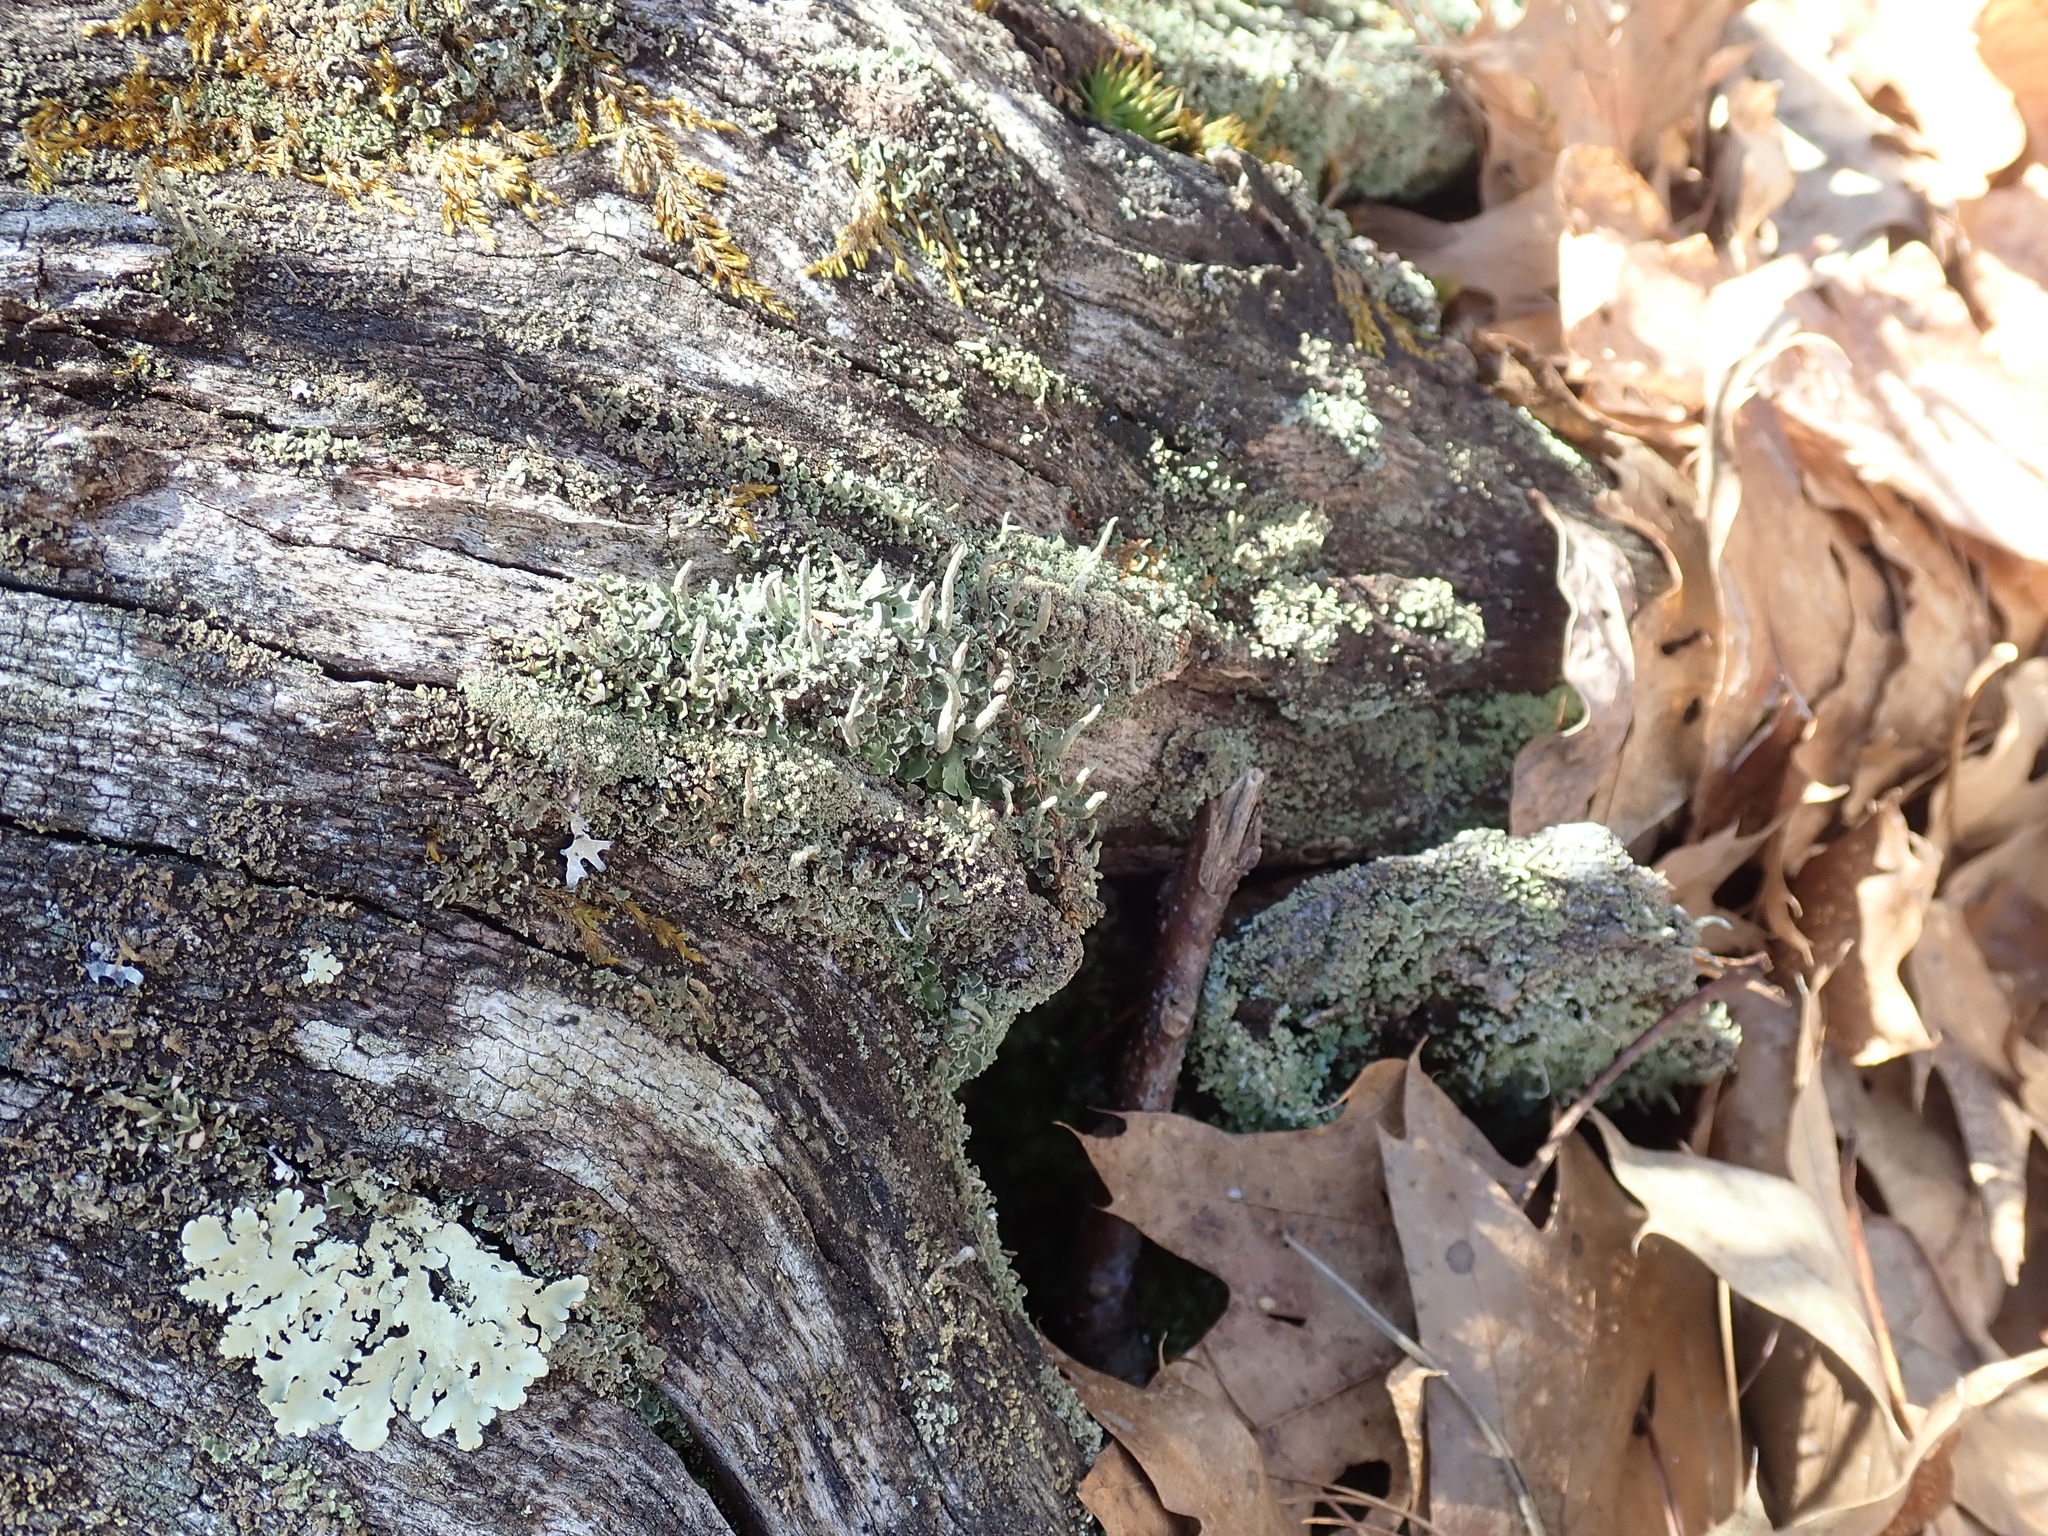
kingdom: Fungi
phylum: Ascomycota
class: Lecanoromycetes
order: Lecanorales
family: Cladoniaceae
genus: Cladonia
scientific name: Cladonia coniocraea
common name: Common powderhorn
